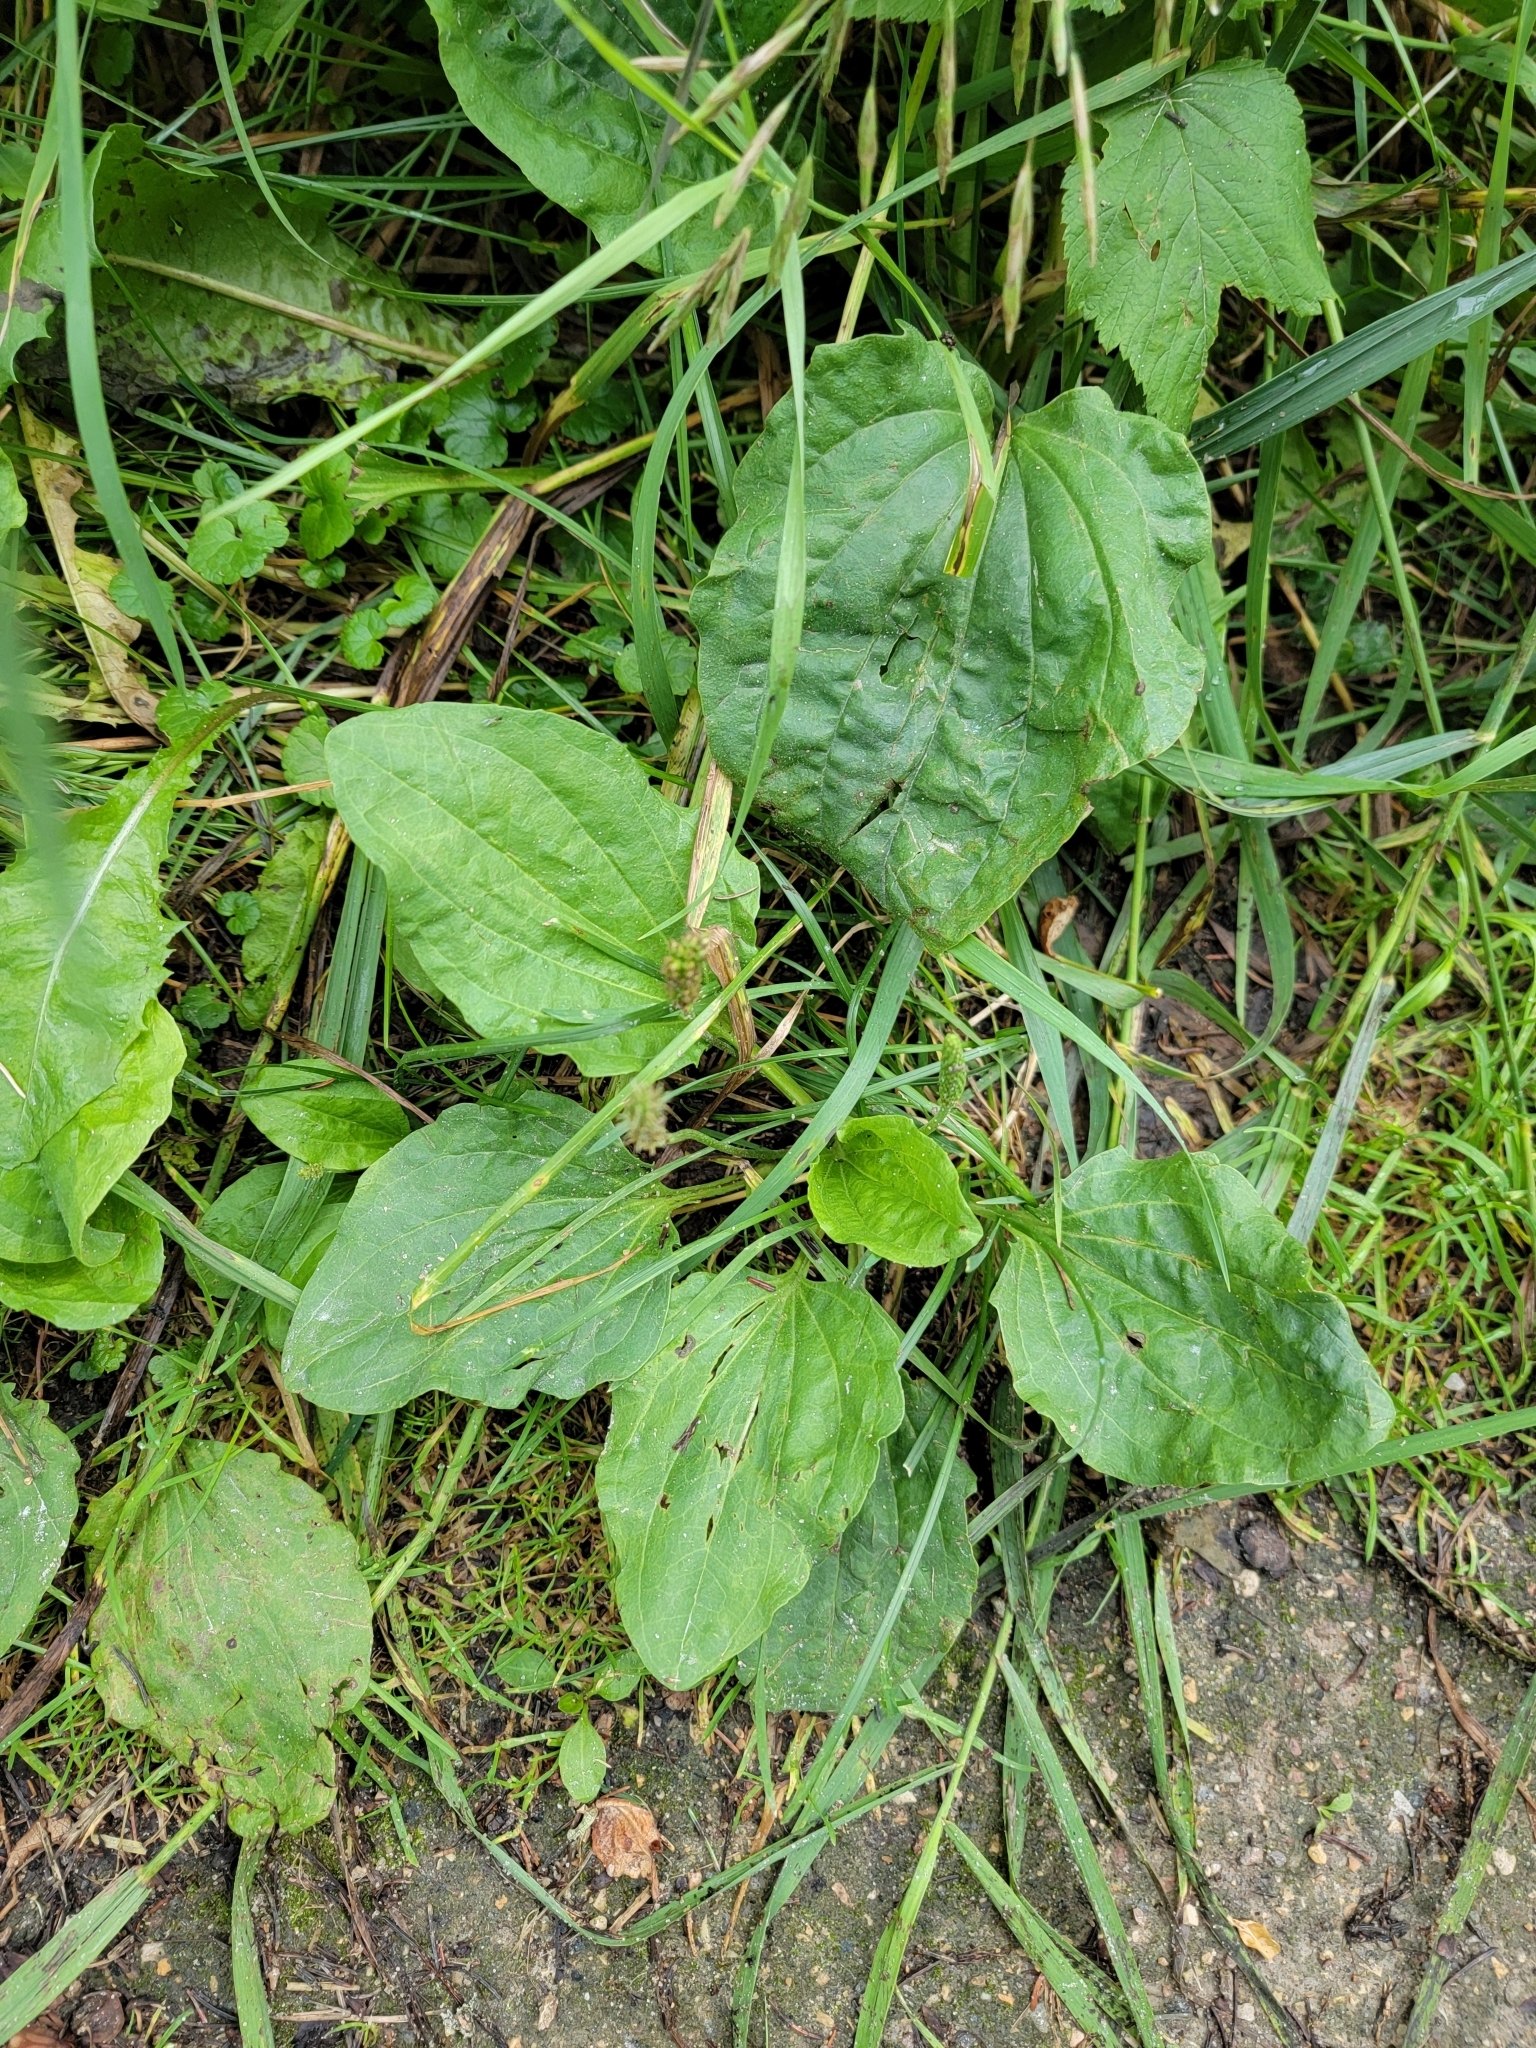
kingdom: Plantae
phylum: Tracheophyta
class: Magnoliopsida
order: Lamiales
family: Plantaginaceae
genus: Plantago
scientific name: Plantago major
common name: Common plantain
